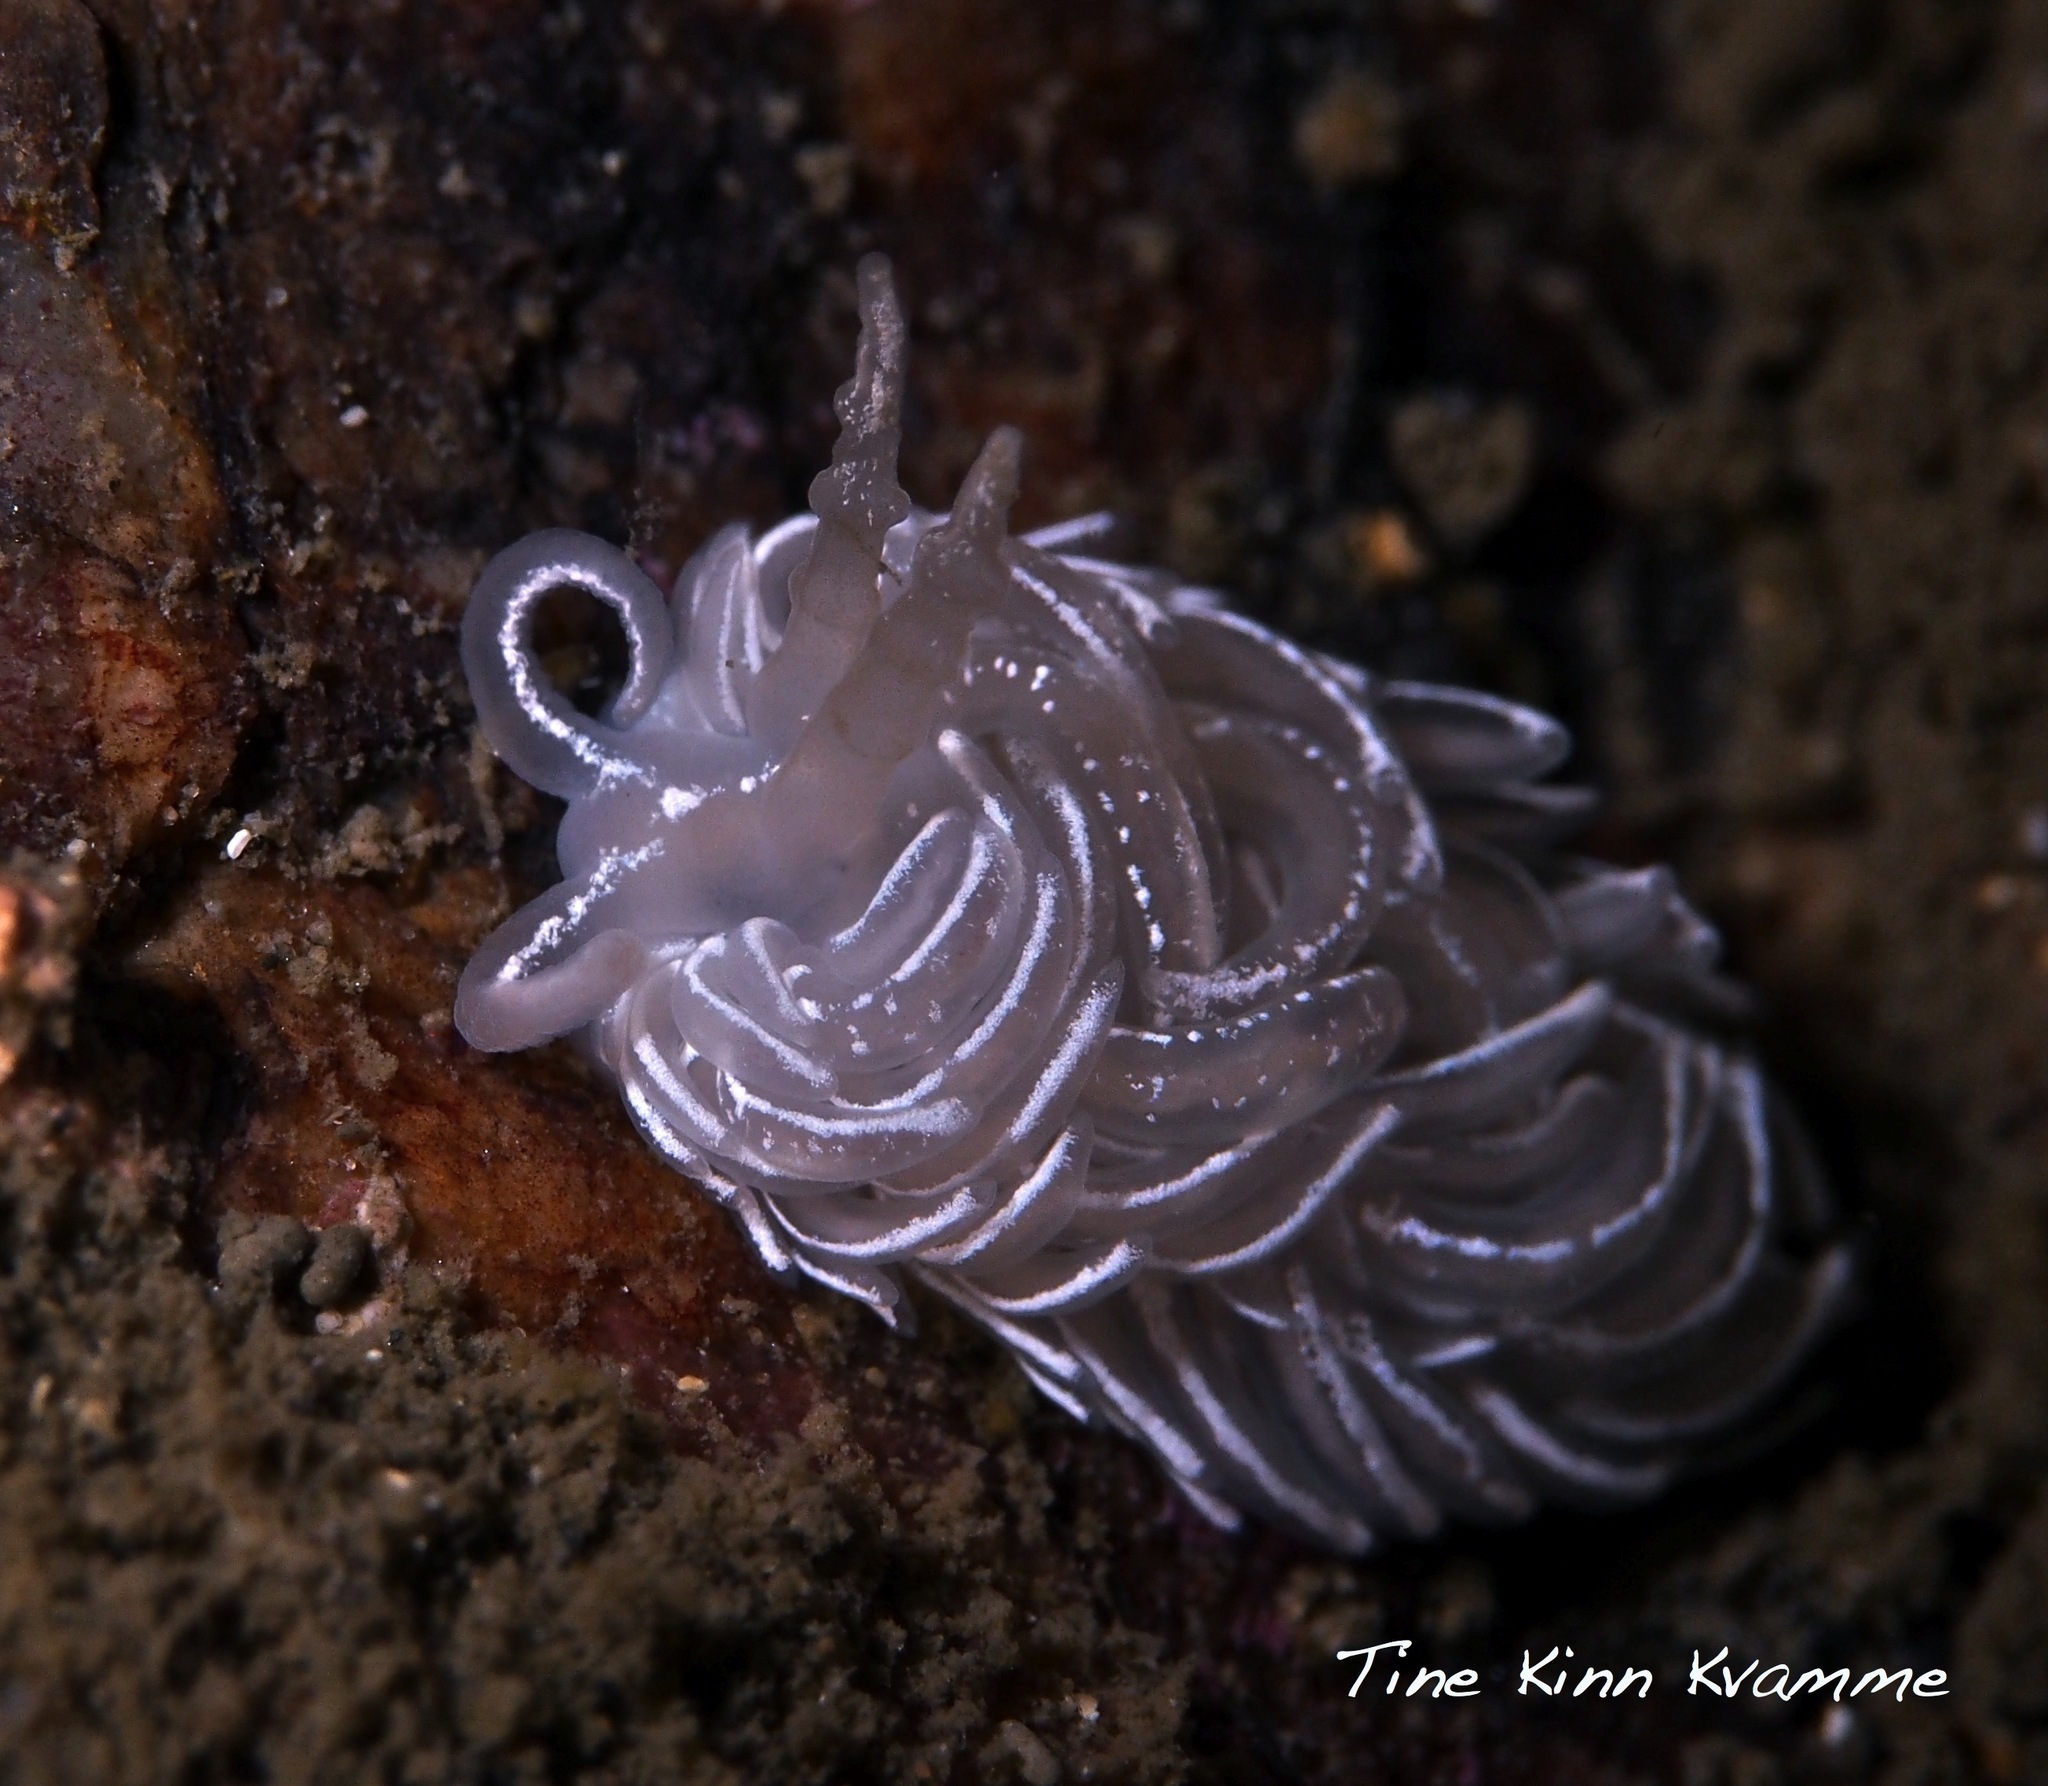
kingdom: Animalia
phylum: Mollusca
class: Gastropoda
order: Nudibranchia
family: Facelinidae
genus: Favorinus
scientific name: Favorinus blianus
